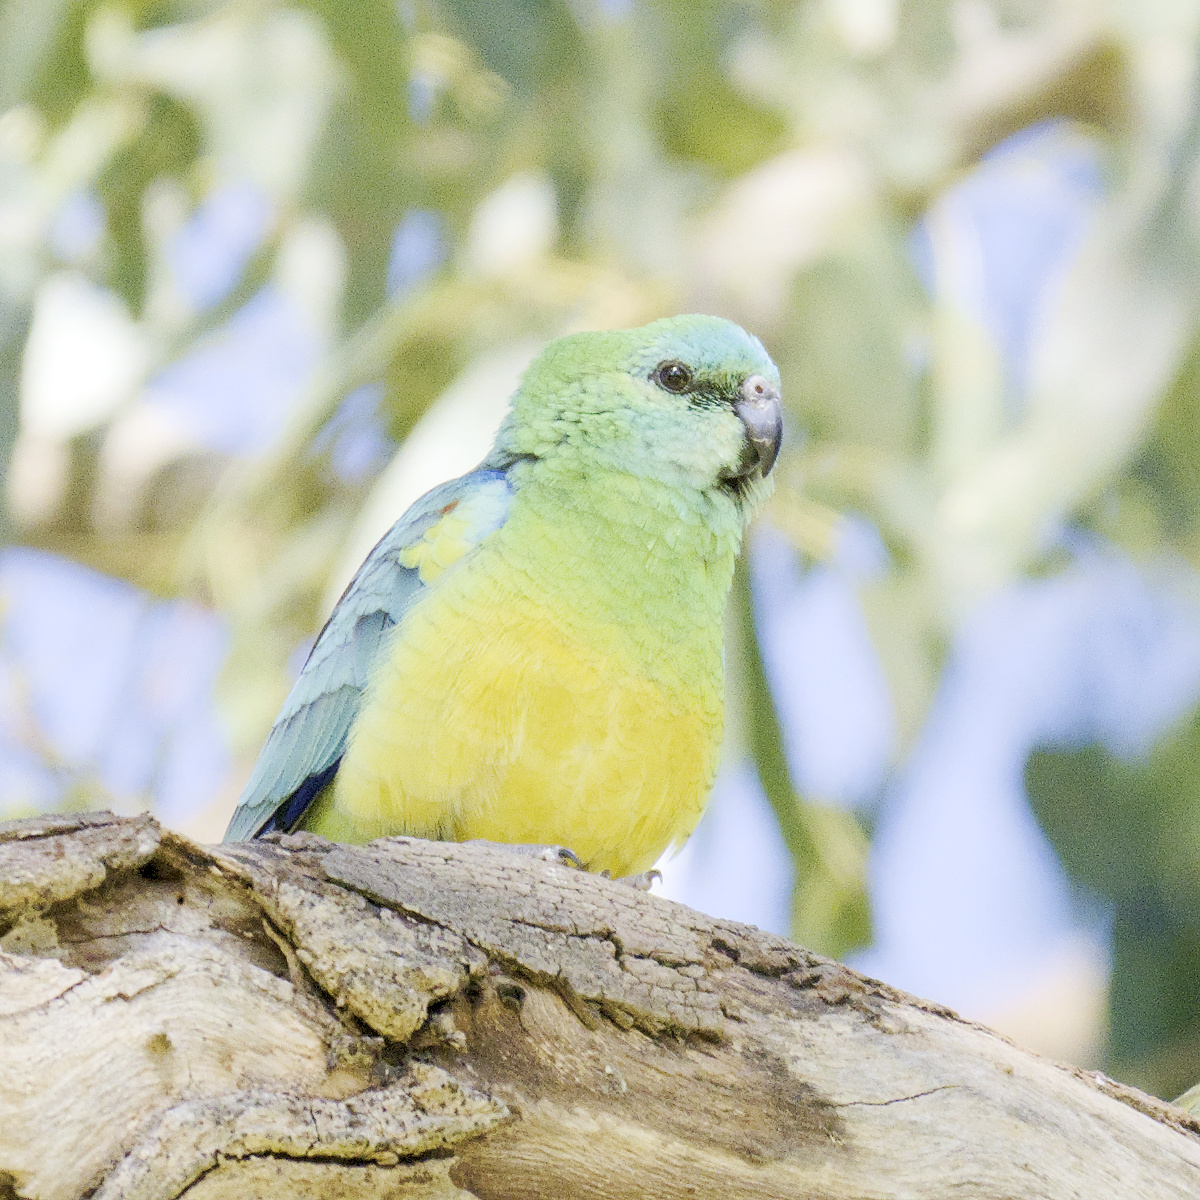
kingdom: Animalia
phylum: Chordata
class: Aves
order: Psittaciformes
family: Psittacidae
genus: Psephotus
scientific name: Psephotus haematonotus
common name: Red-rumped parrot
